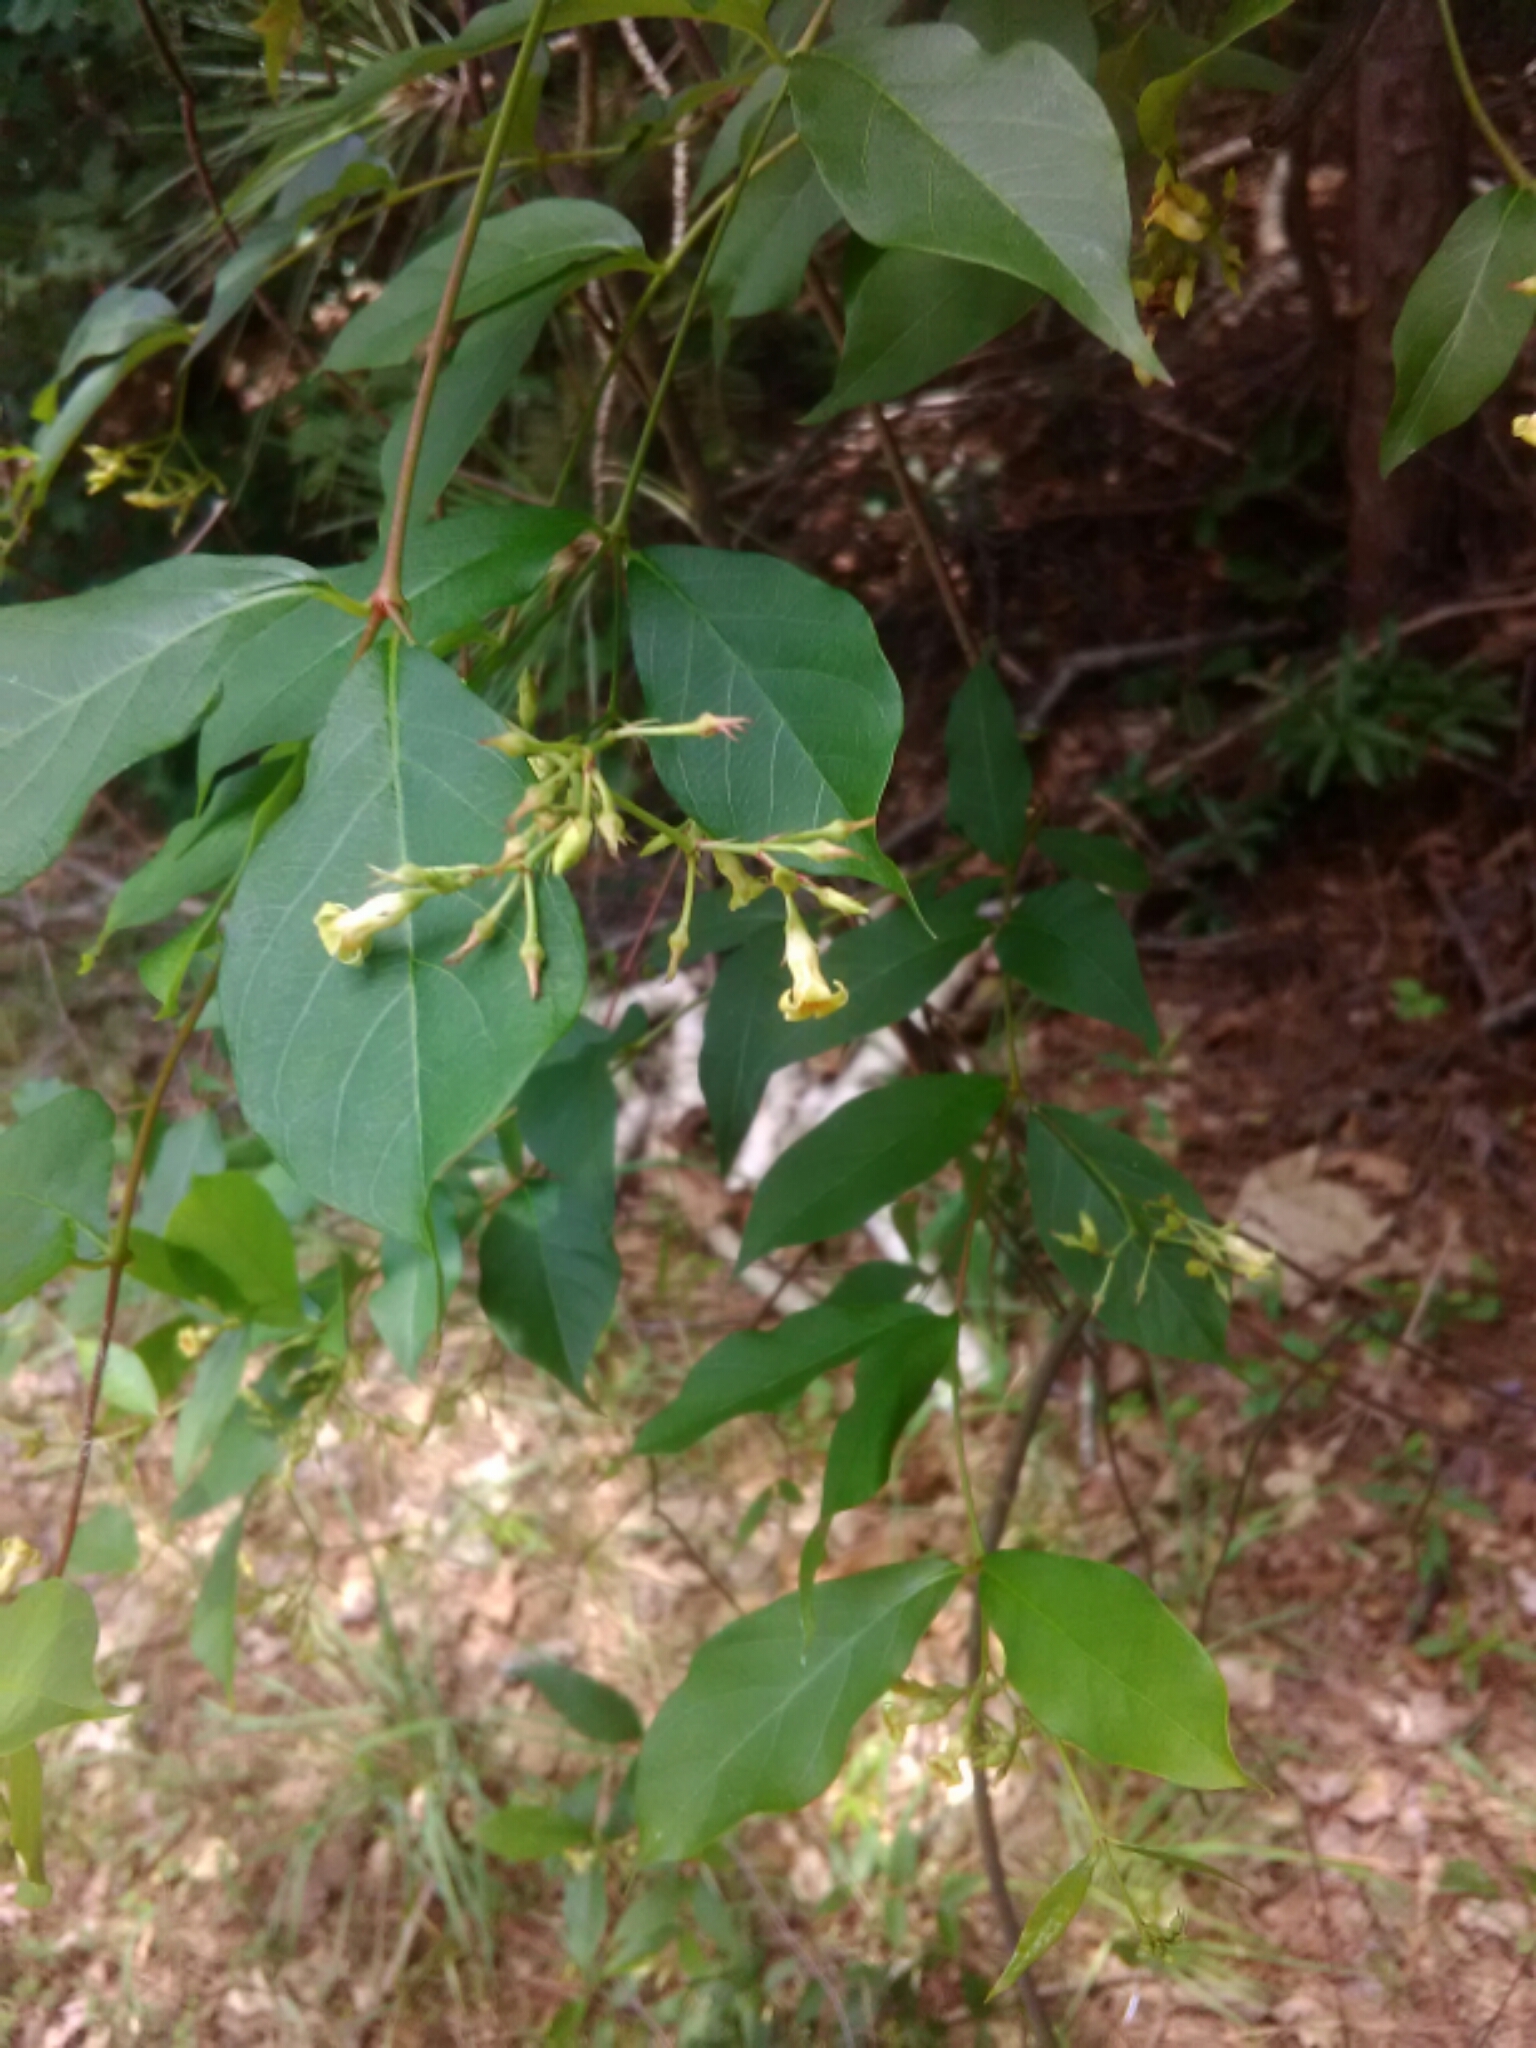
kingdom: Plantae
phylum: Tracheophyta
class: Magnoliopsida
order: Gentianales
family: Apocynaceae
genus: Thyrsanthella
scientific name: Thyrsanthella difformis
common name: Climbing dogbane
